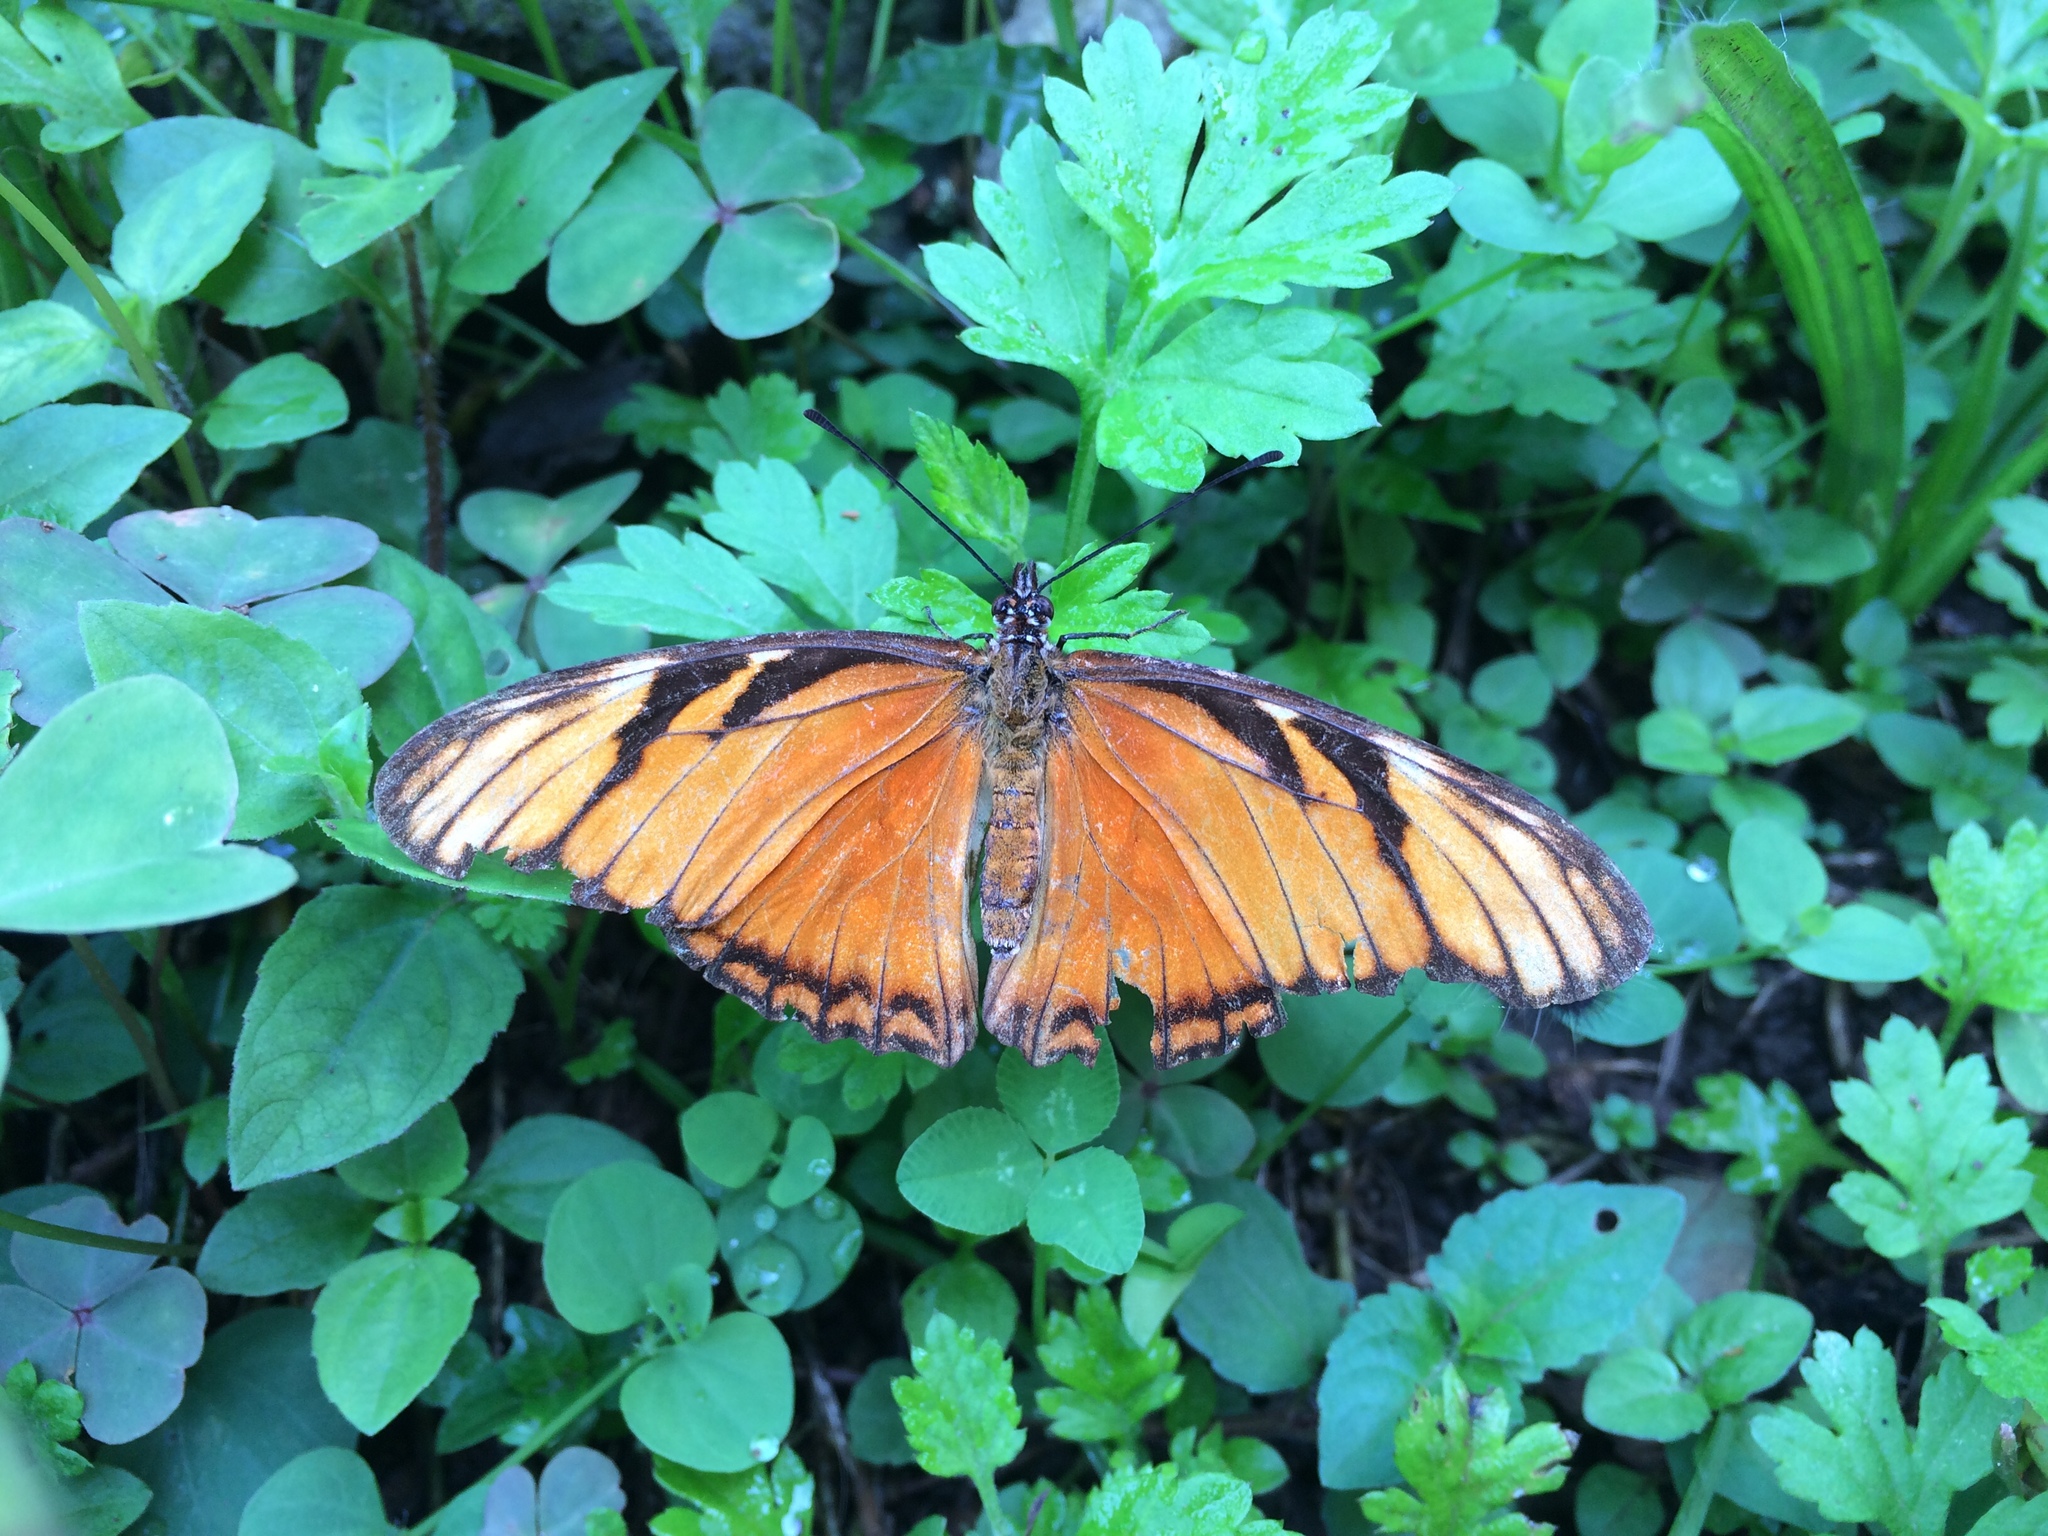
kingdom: Animalia
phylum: Arthropoda
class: Insecta
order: Lepidoptera
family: Nymphalidae
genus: Dione
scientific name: Dione juno
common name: Juno silverspot
